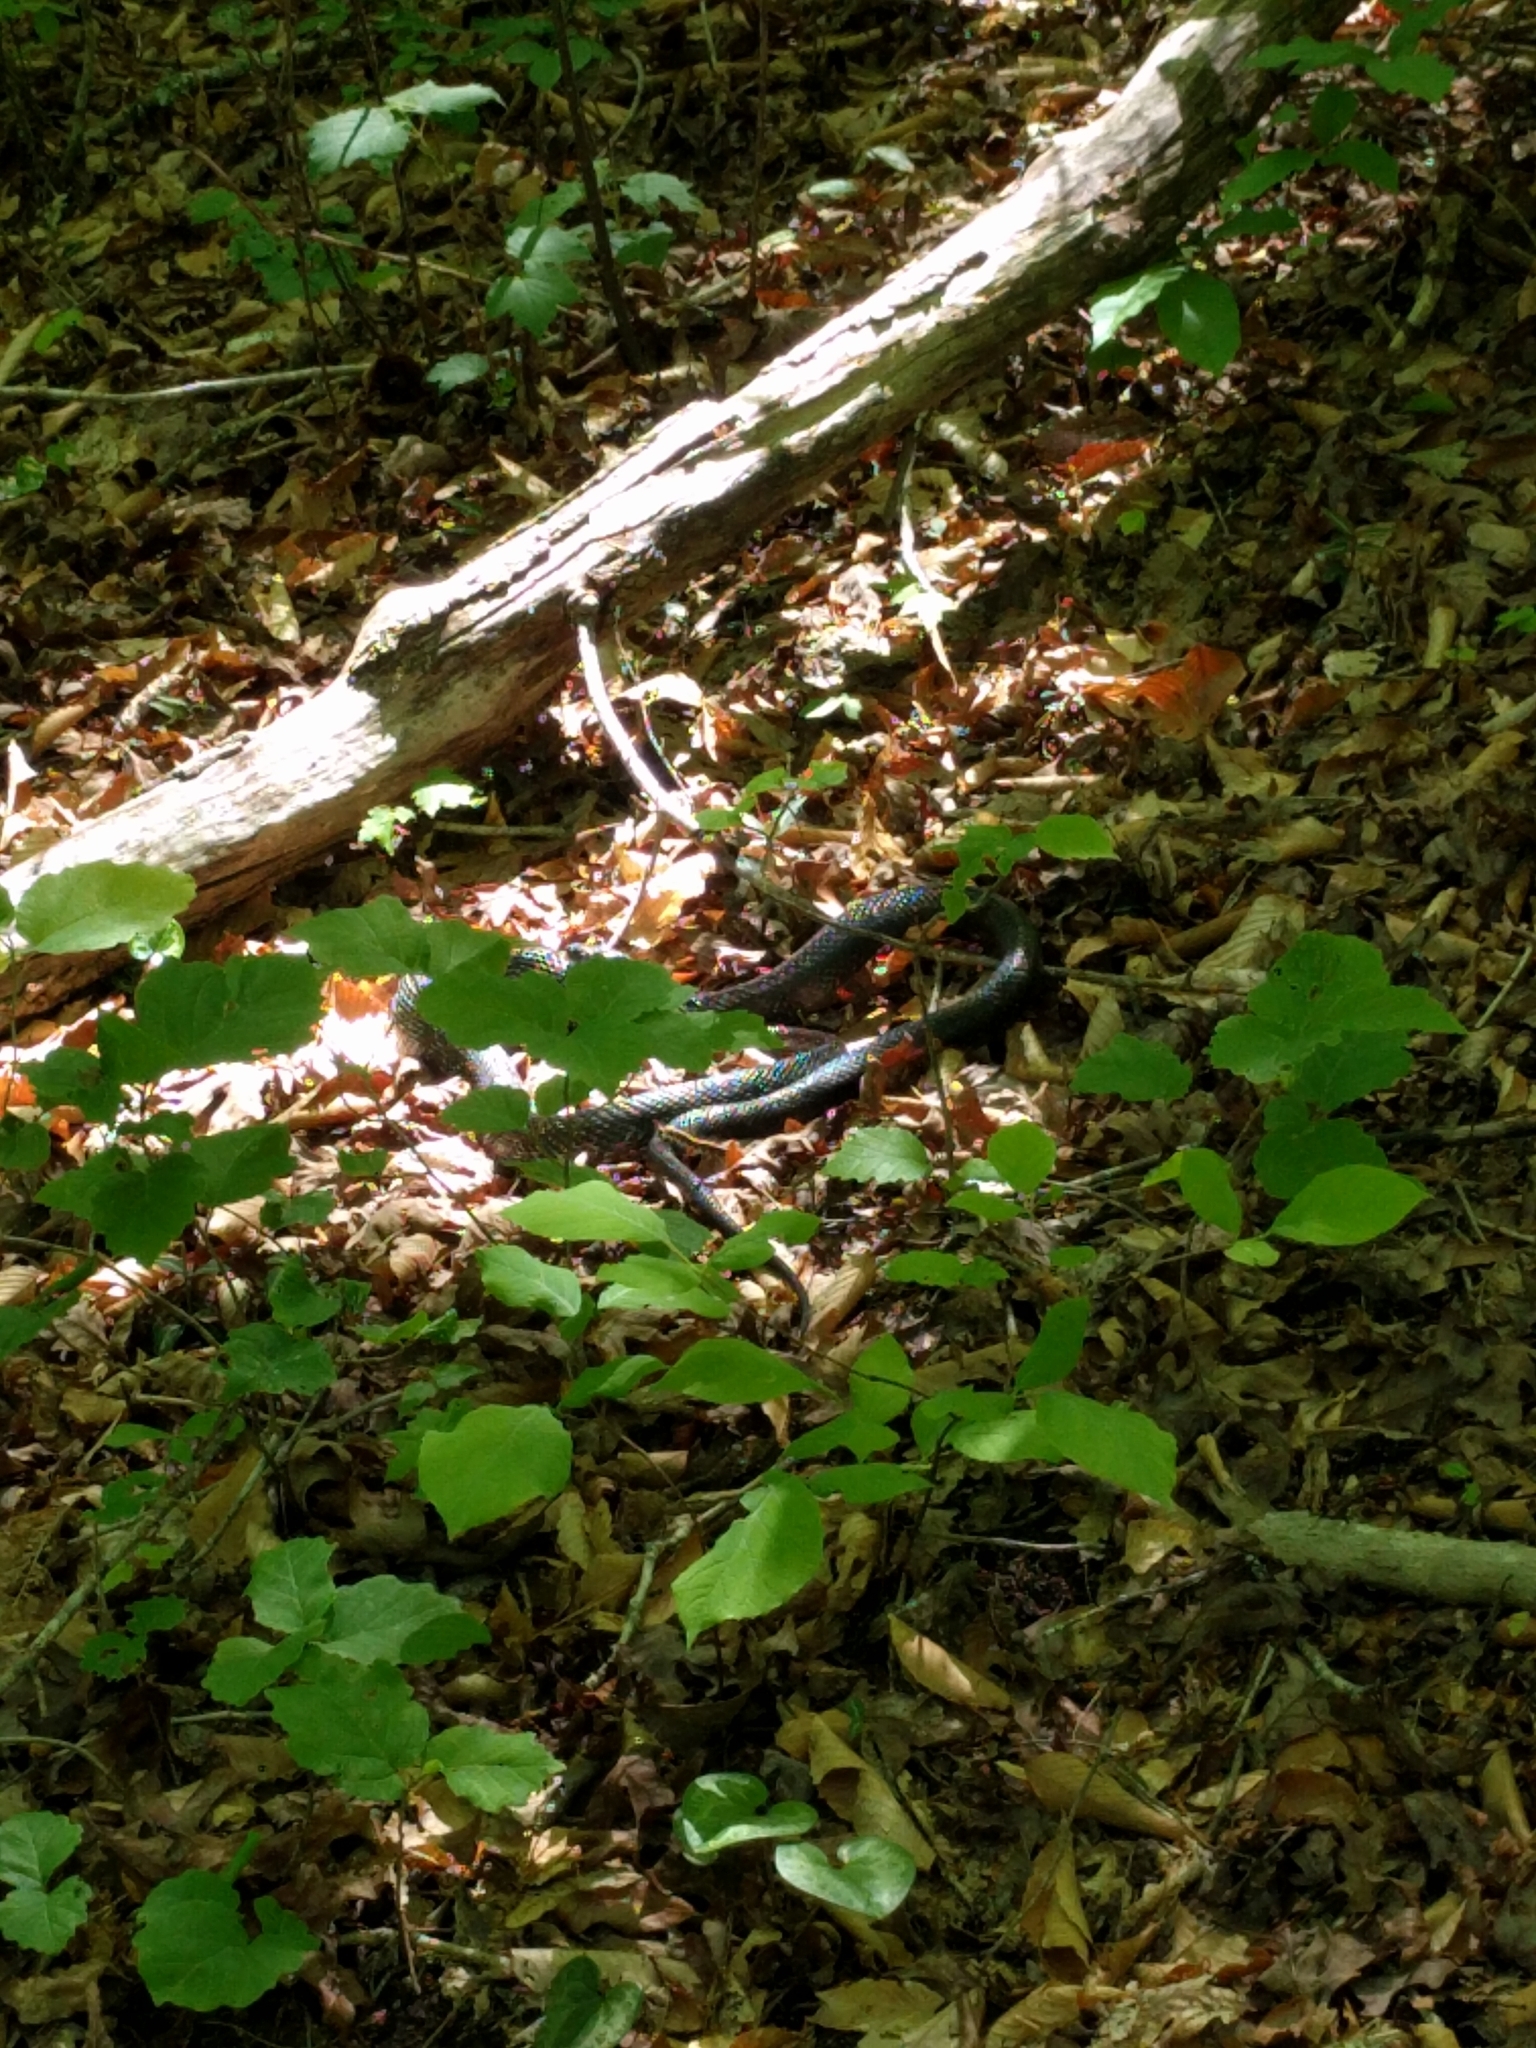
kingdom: Animalia
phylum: Chordata
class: Squamata
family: Colubridae
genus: Pantherophis
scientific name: Pantherophis alleghaniensis
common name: Eastern rat snake
